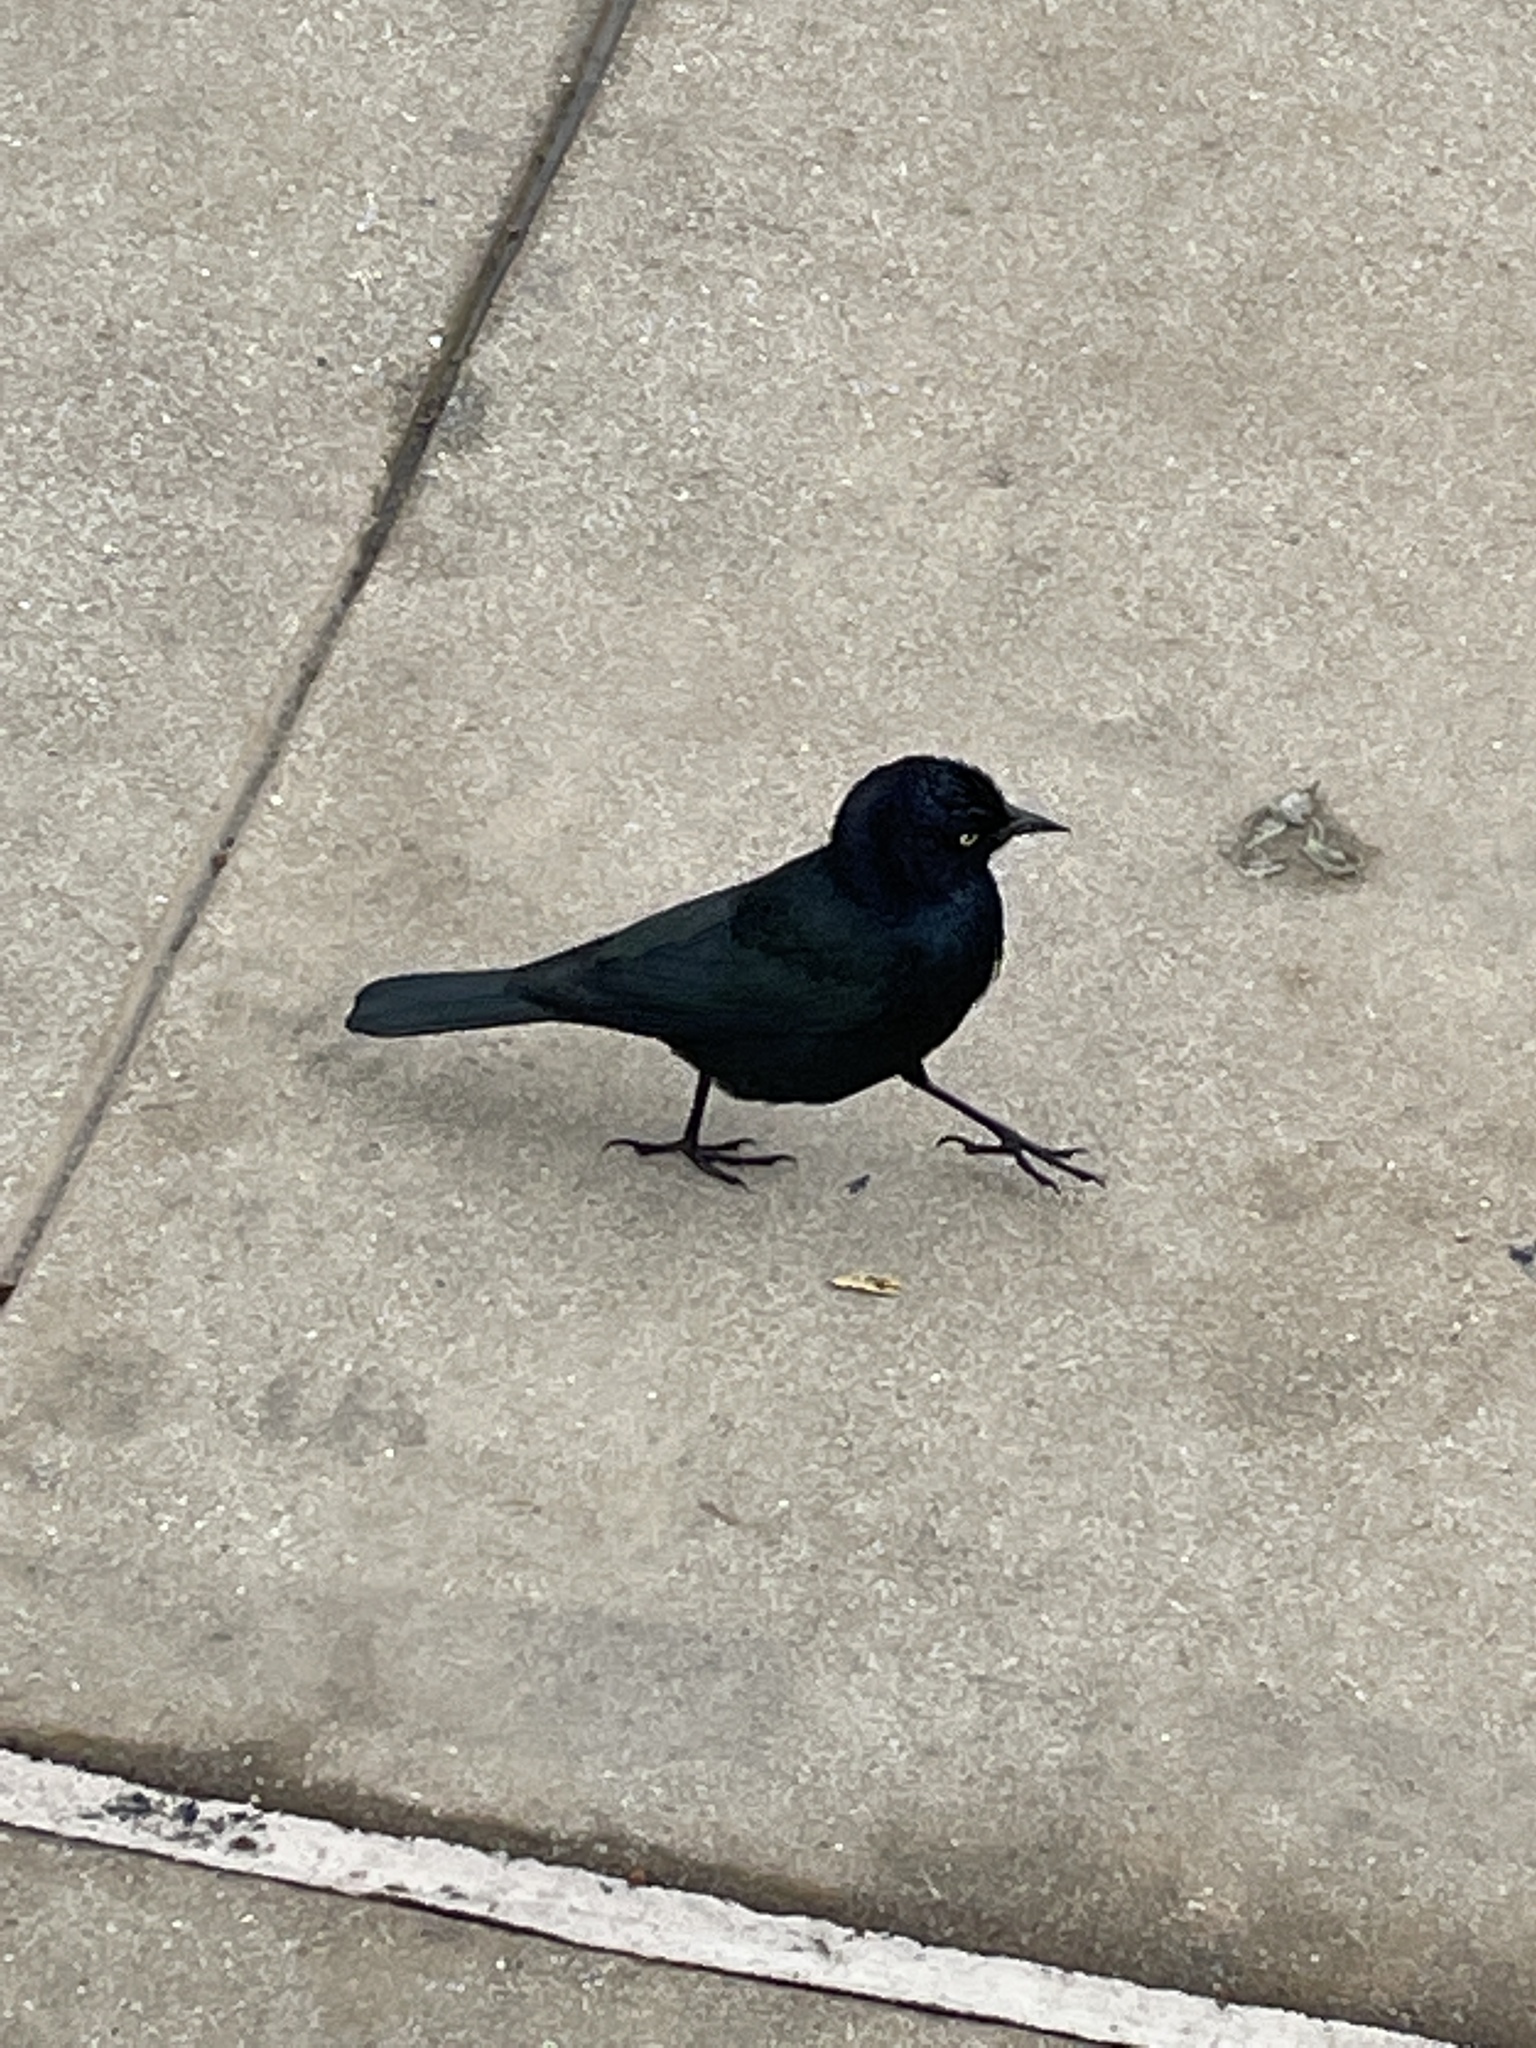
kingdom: Animalia
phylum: Chordata
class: Aves
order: Passeriformes
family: Icteridae
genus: Euphagus
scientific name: Euphagus cyanocephalus
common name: Brewer's blackbird
